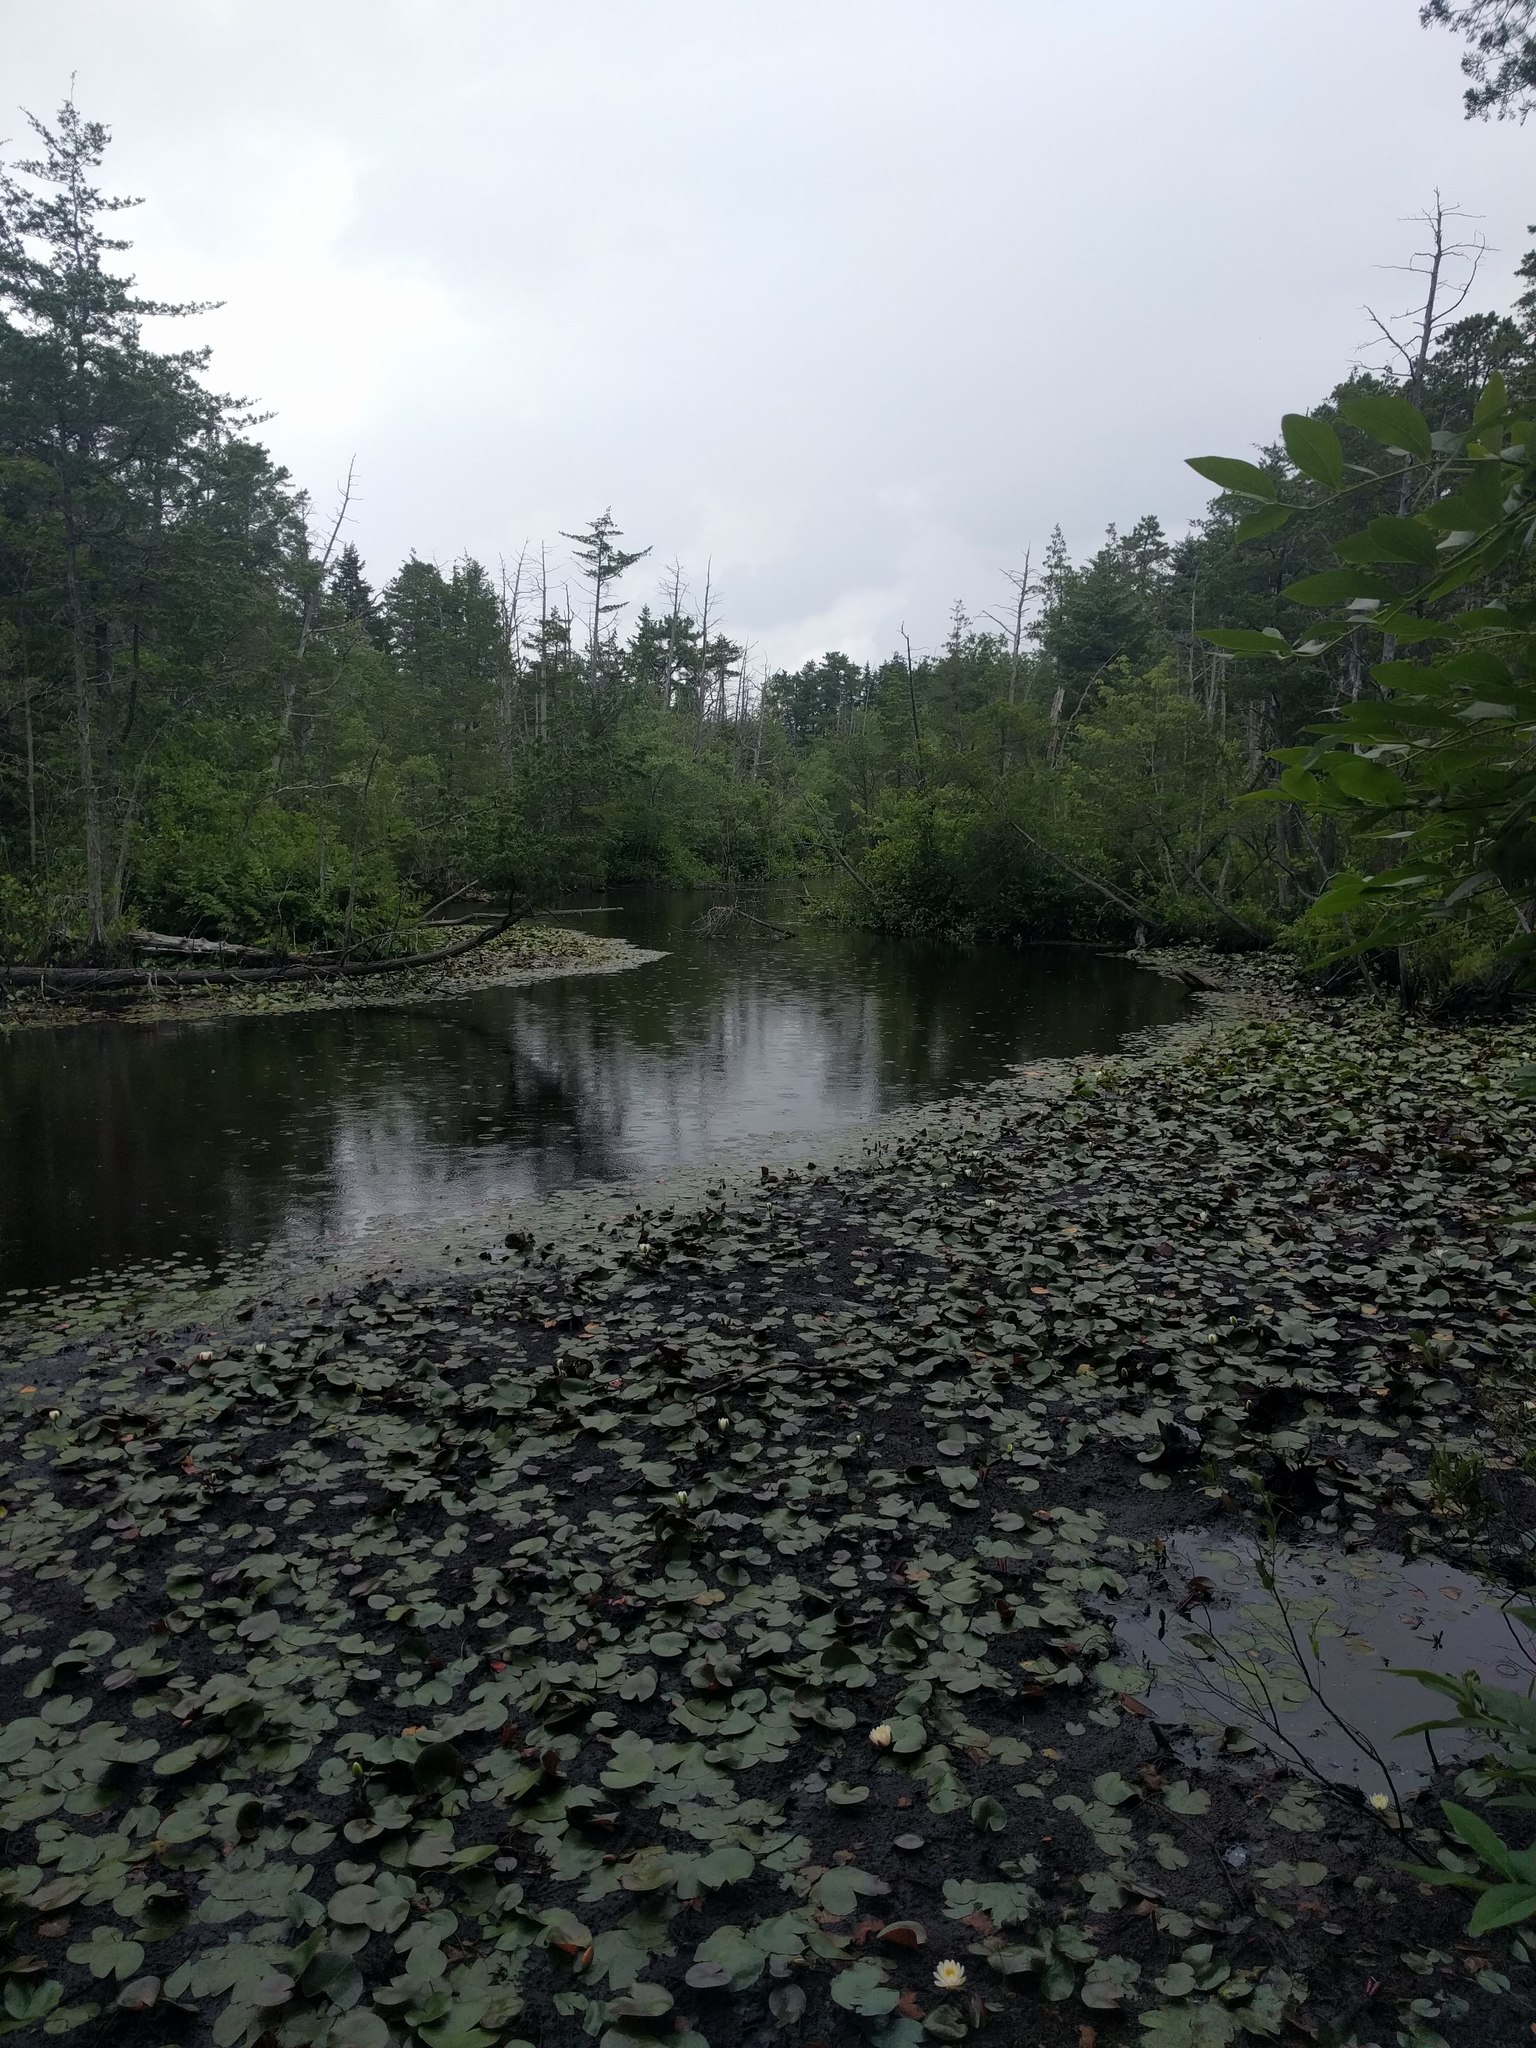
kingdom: Plantae
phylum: Tracheophyta
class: Magnoliopsida
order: Nymphaeales
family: Nymphaeaceae
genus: Nymphaea
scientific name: Nymphaea odorata
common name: Fragrant water-lily
